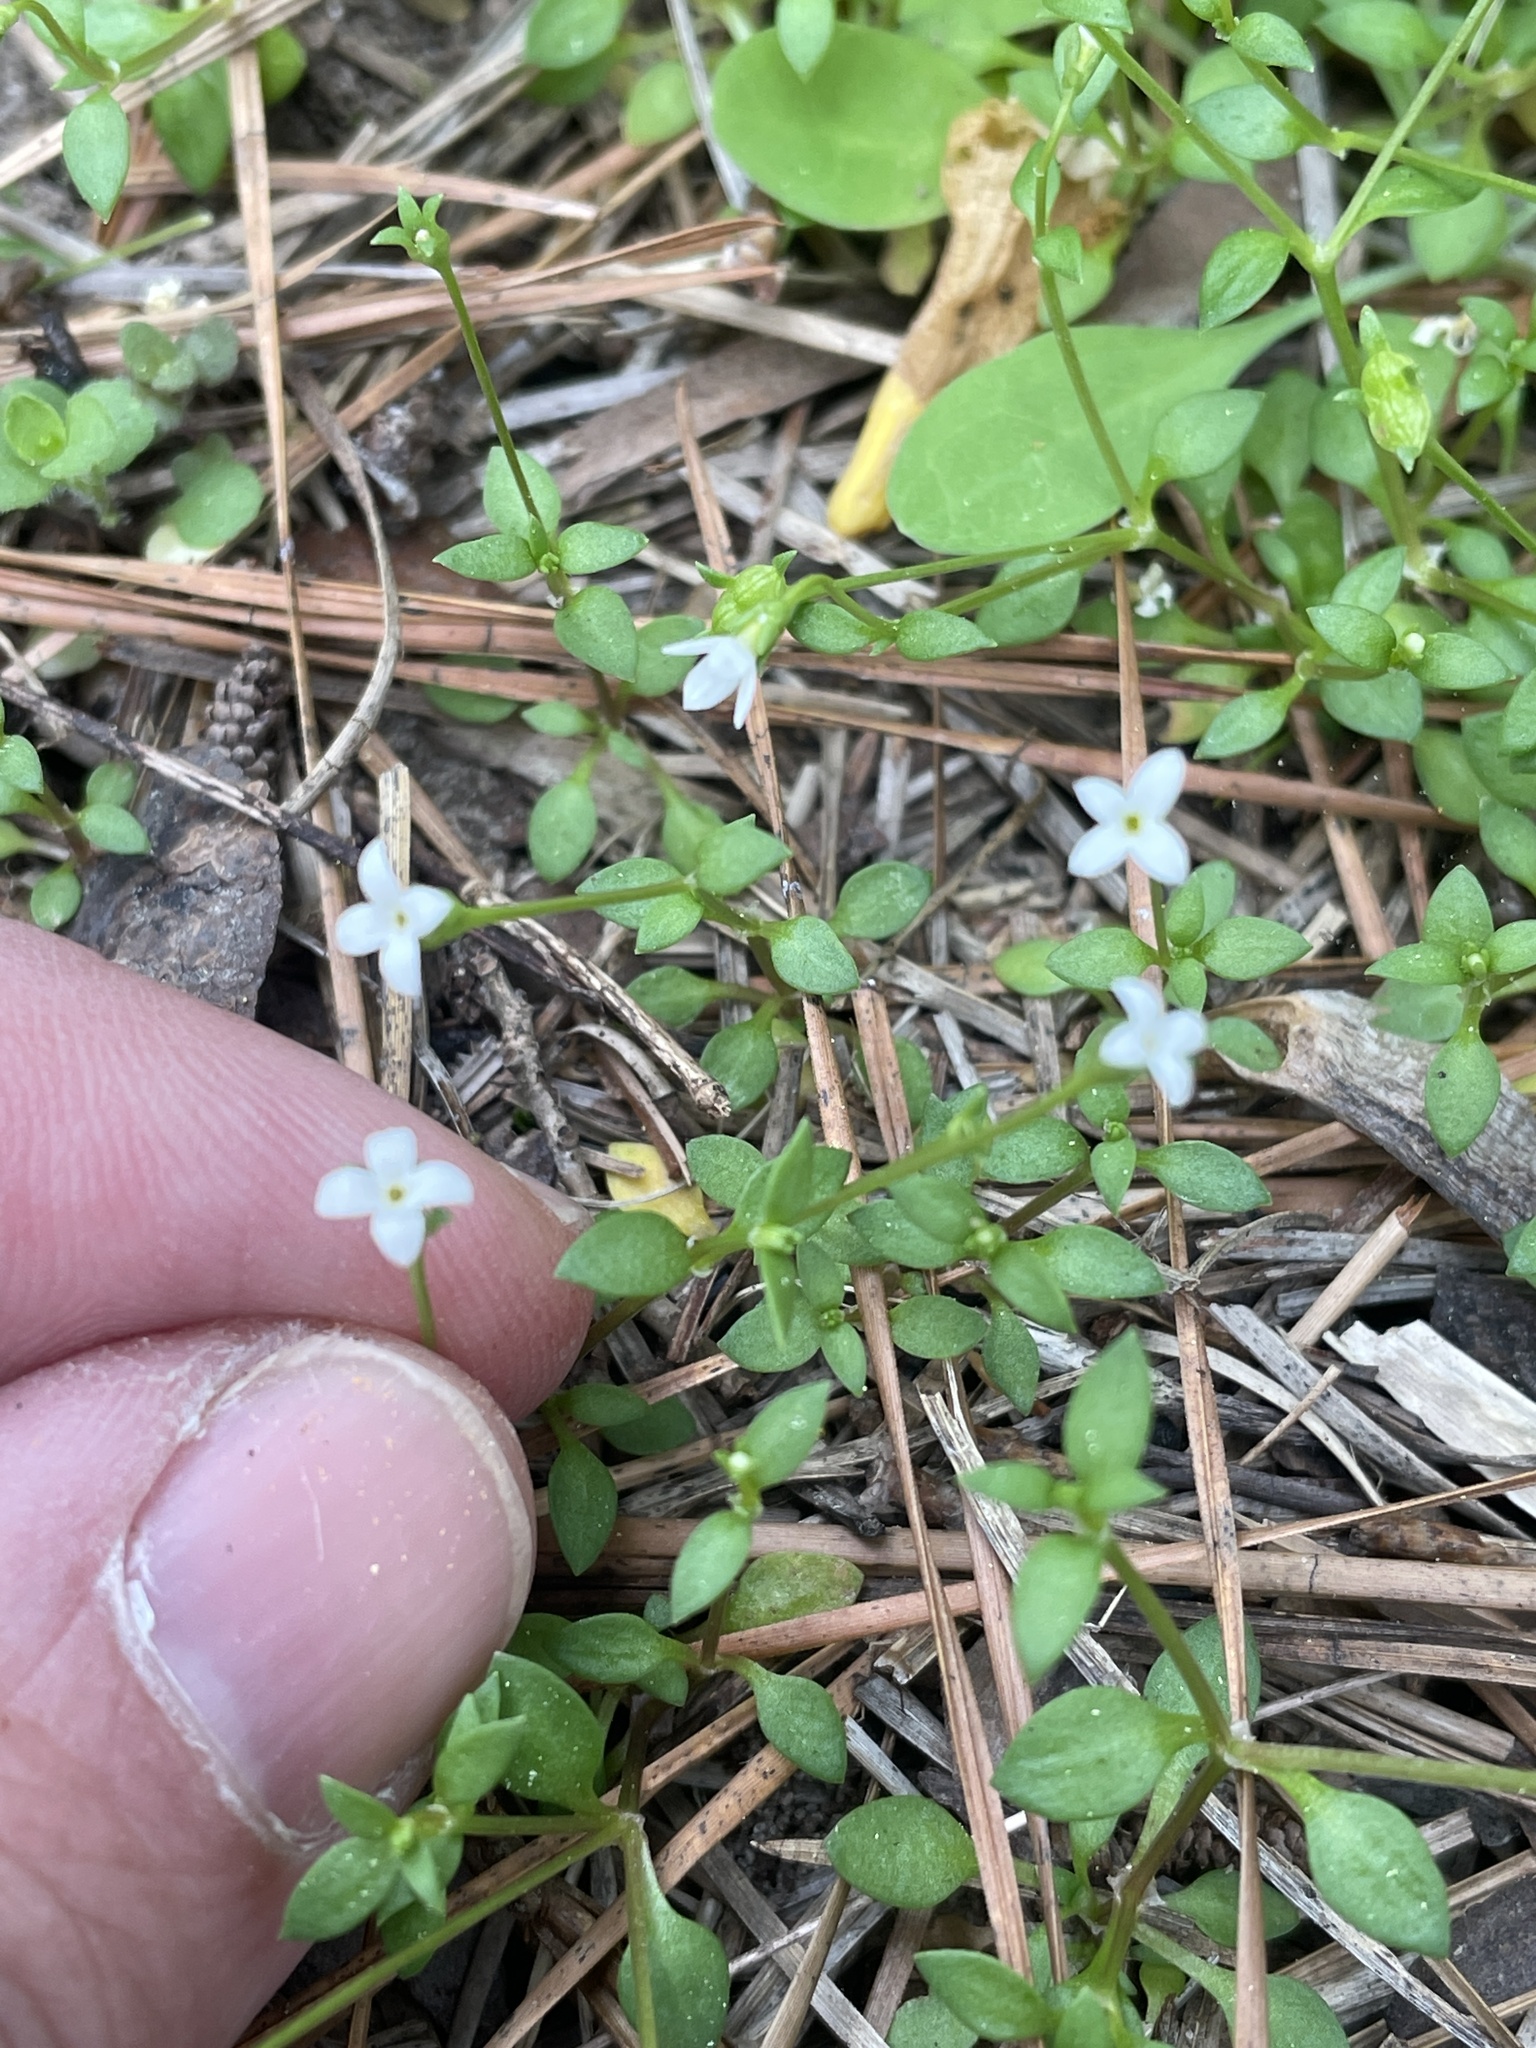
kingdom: Plantae
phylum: Tracheophyta
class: Magnoliopsida
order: Gentianales
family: Rubiaceae
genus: Houstonia
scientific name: Houstonia micrantha
